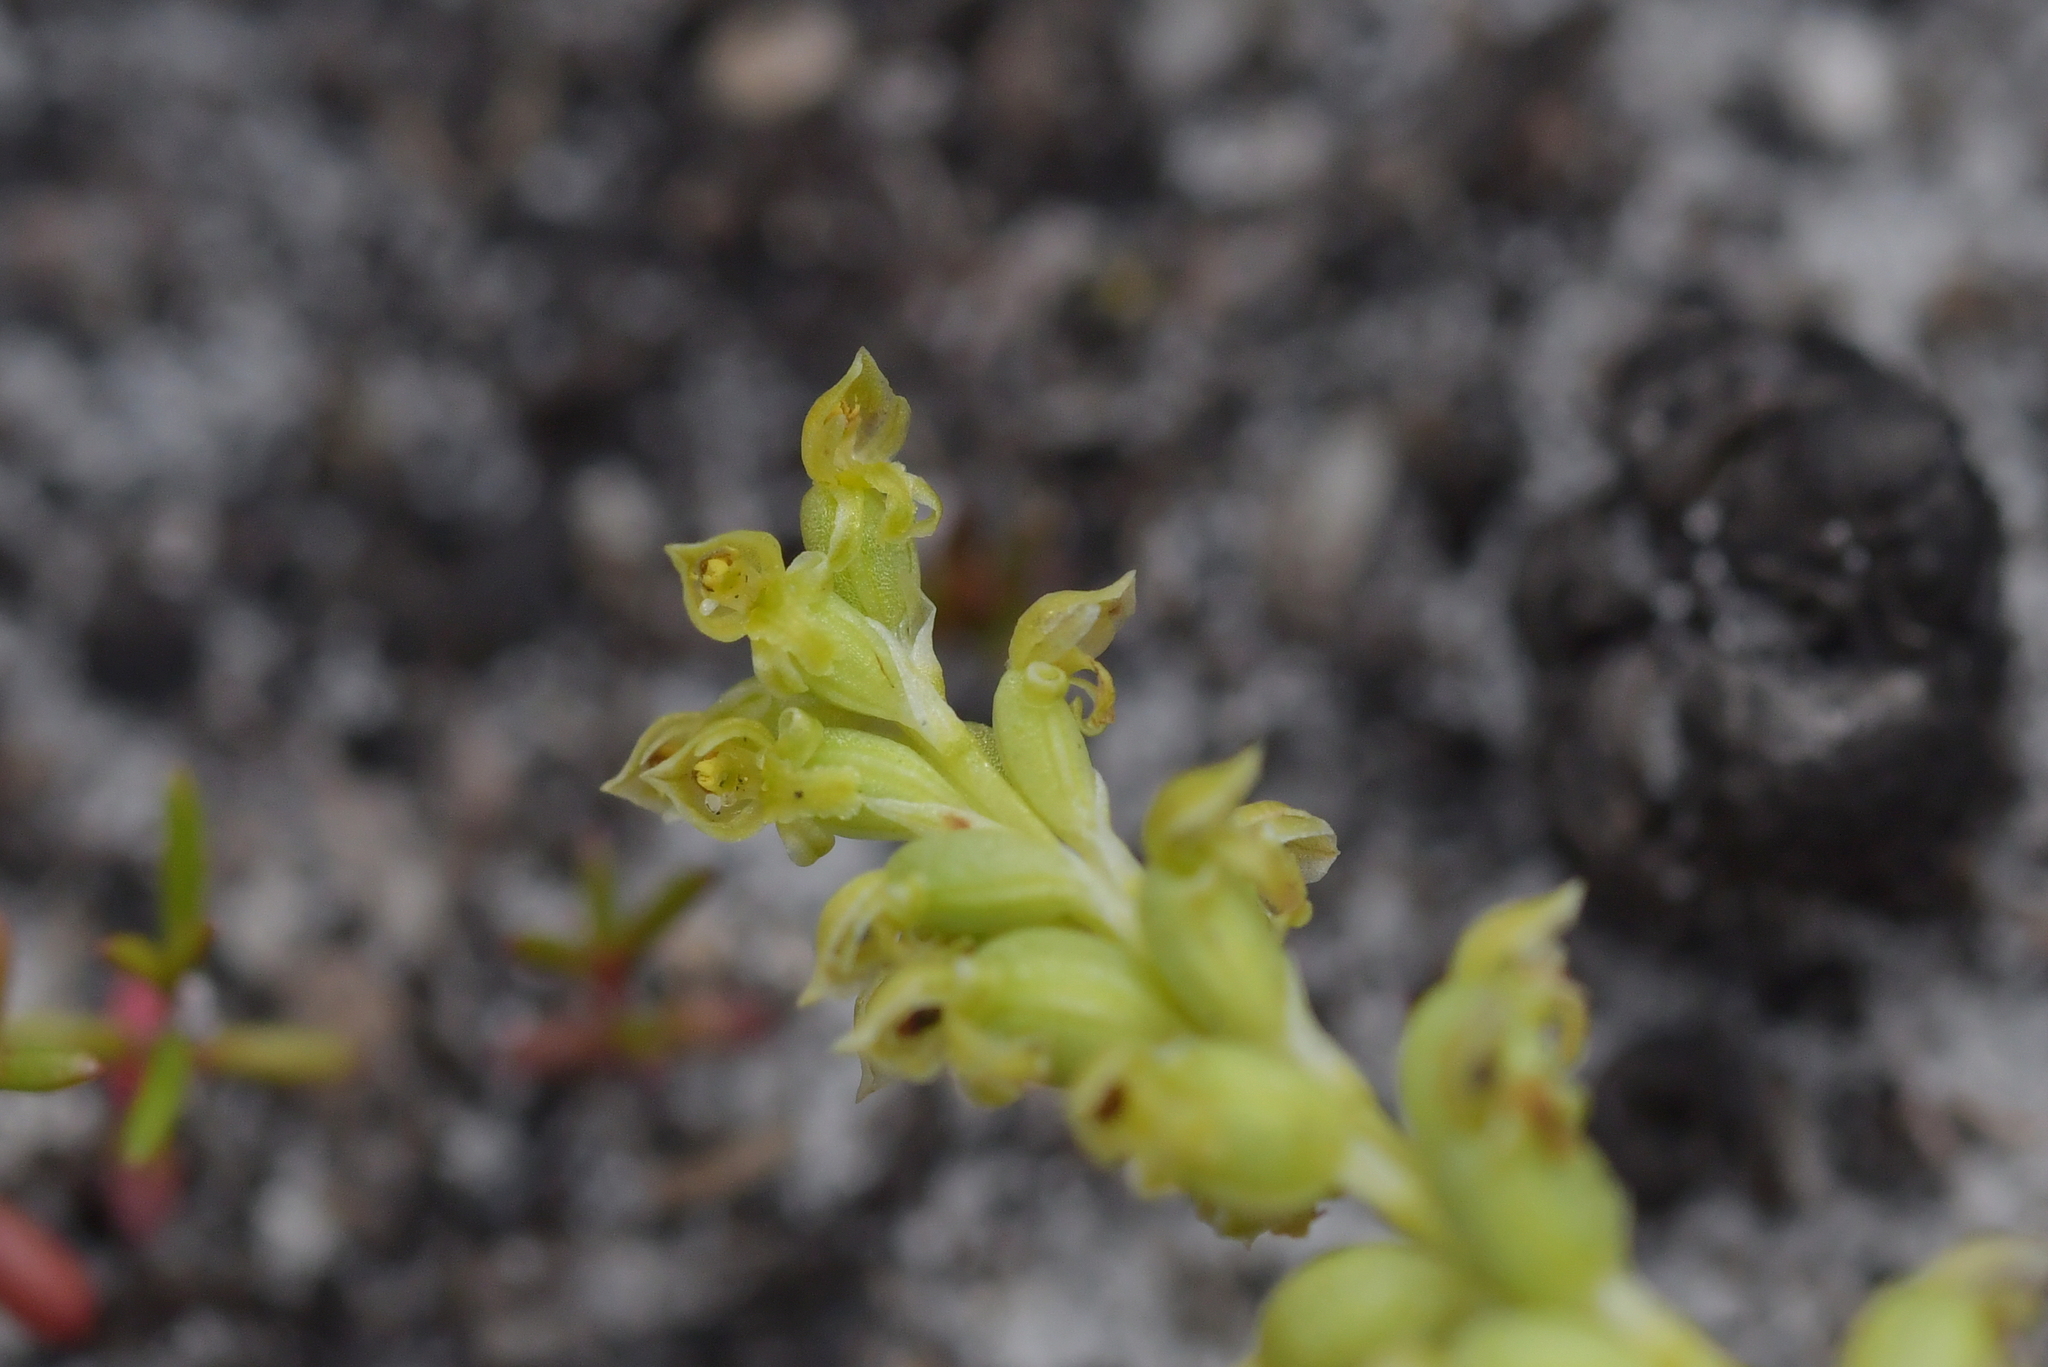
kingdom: Plantae
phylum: Tracheophyta
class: Liliopsida
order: Asparagales
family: Orchidaceae
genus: Microtis
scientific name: Microtis unifolia
